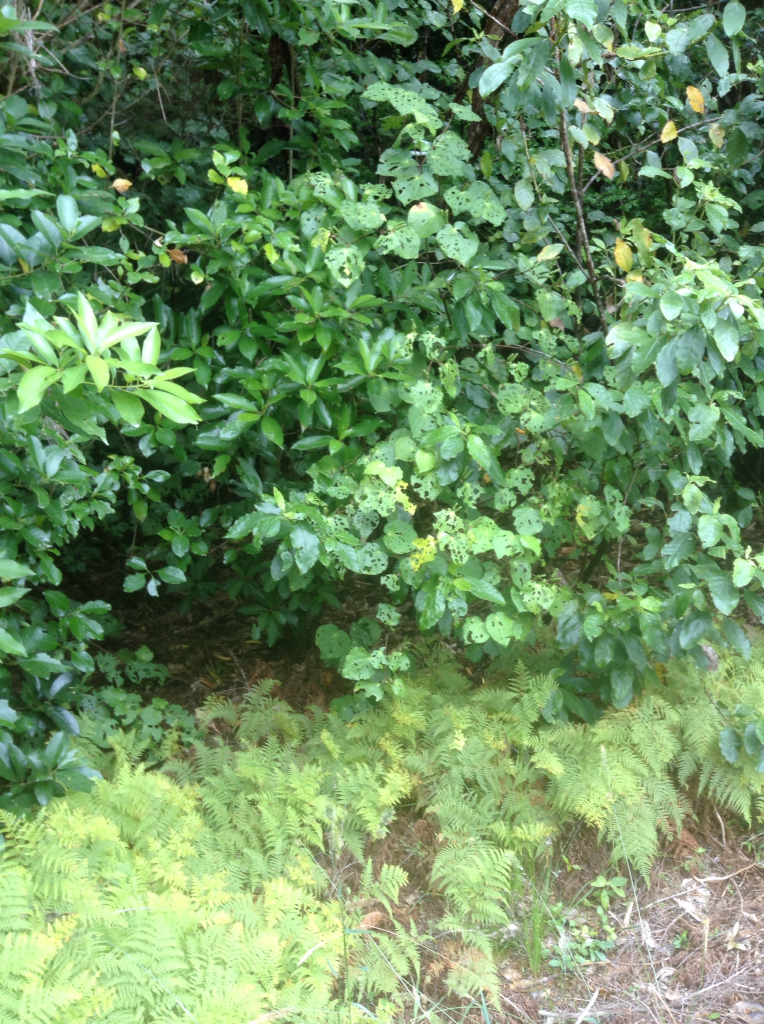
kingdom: Plantae
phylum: Tracheophyta
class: Magnoliopsida
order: Piperales
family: Piperaceae
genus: Macropiper
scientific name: Macropiper excelsum
